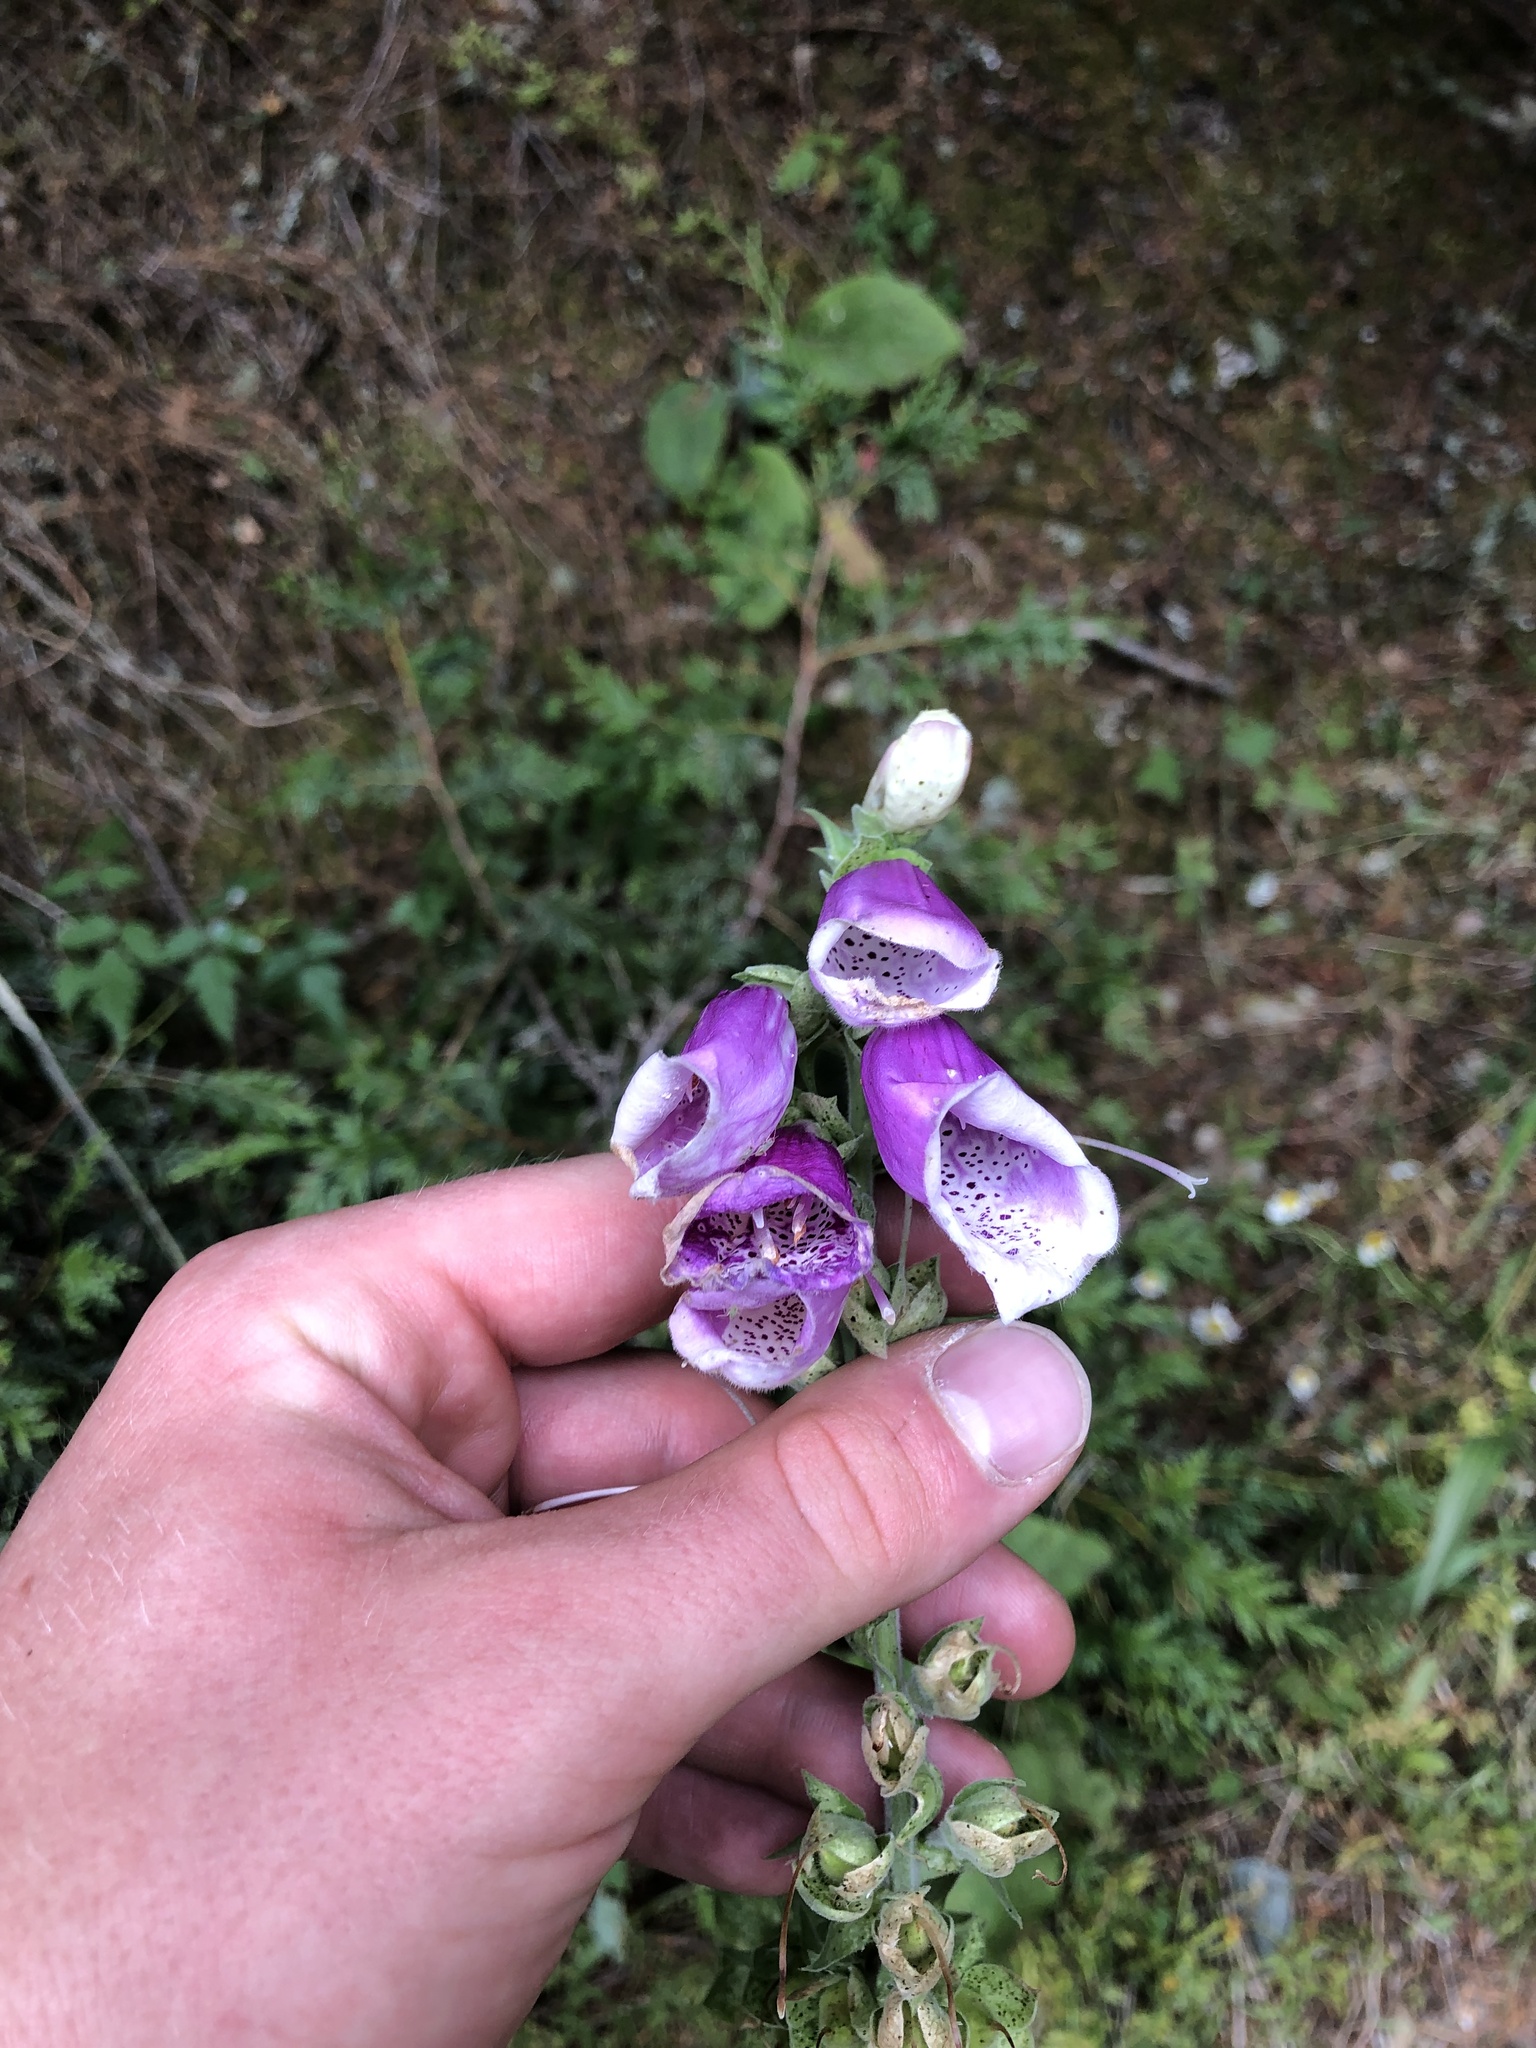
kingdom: Plantae
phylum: Tracheophyta
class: Magnoliopsida
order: Lamiales
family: Plantaginaceae
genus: Digitalis
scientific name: Digitalis purpurea
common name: Foxglove
